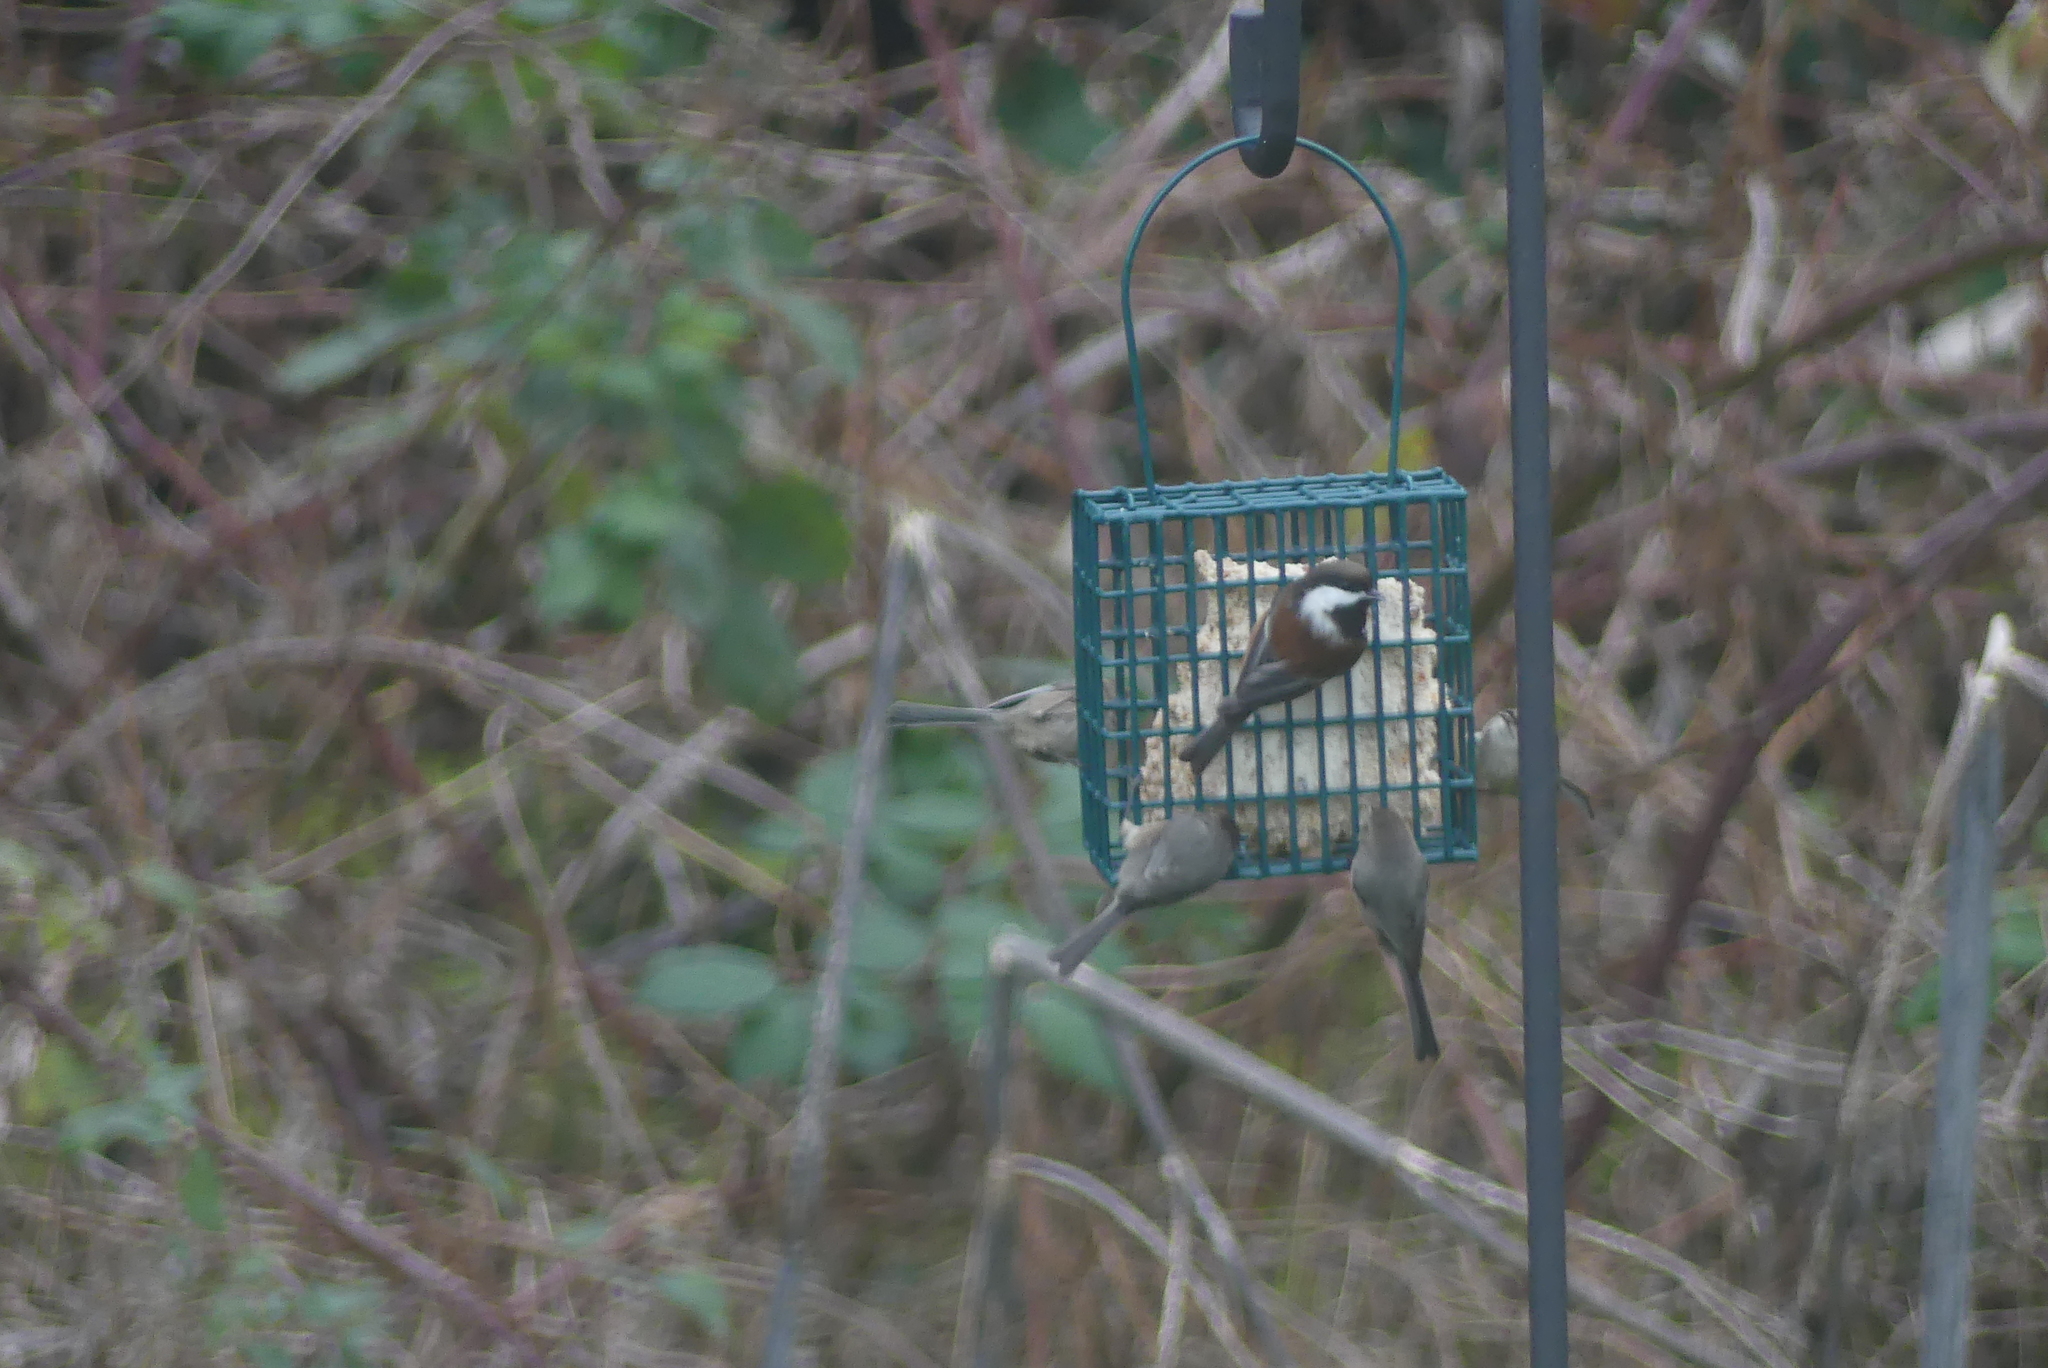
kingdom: Animalia
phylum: Chordata
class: Aves
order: Passeriformes
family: Paridae
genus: Poecile
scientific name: Poecile rufescens
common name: Chestnut-backed chickadee
